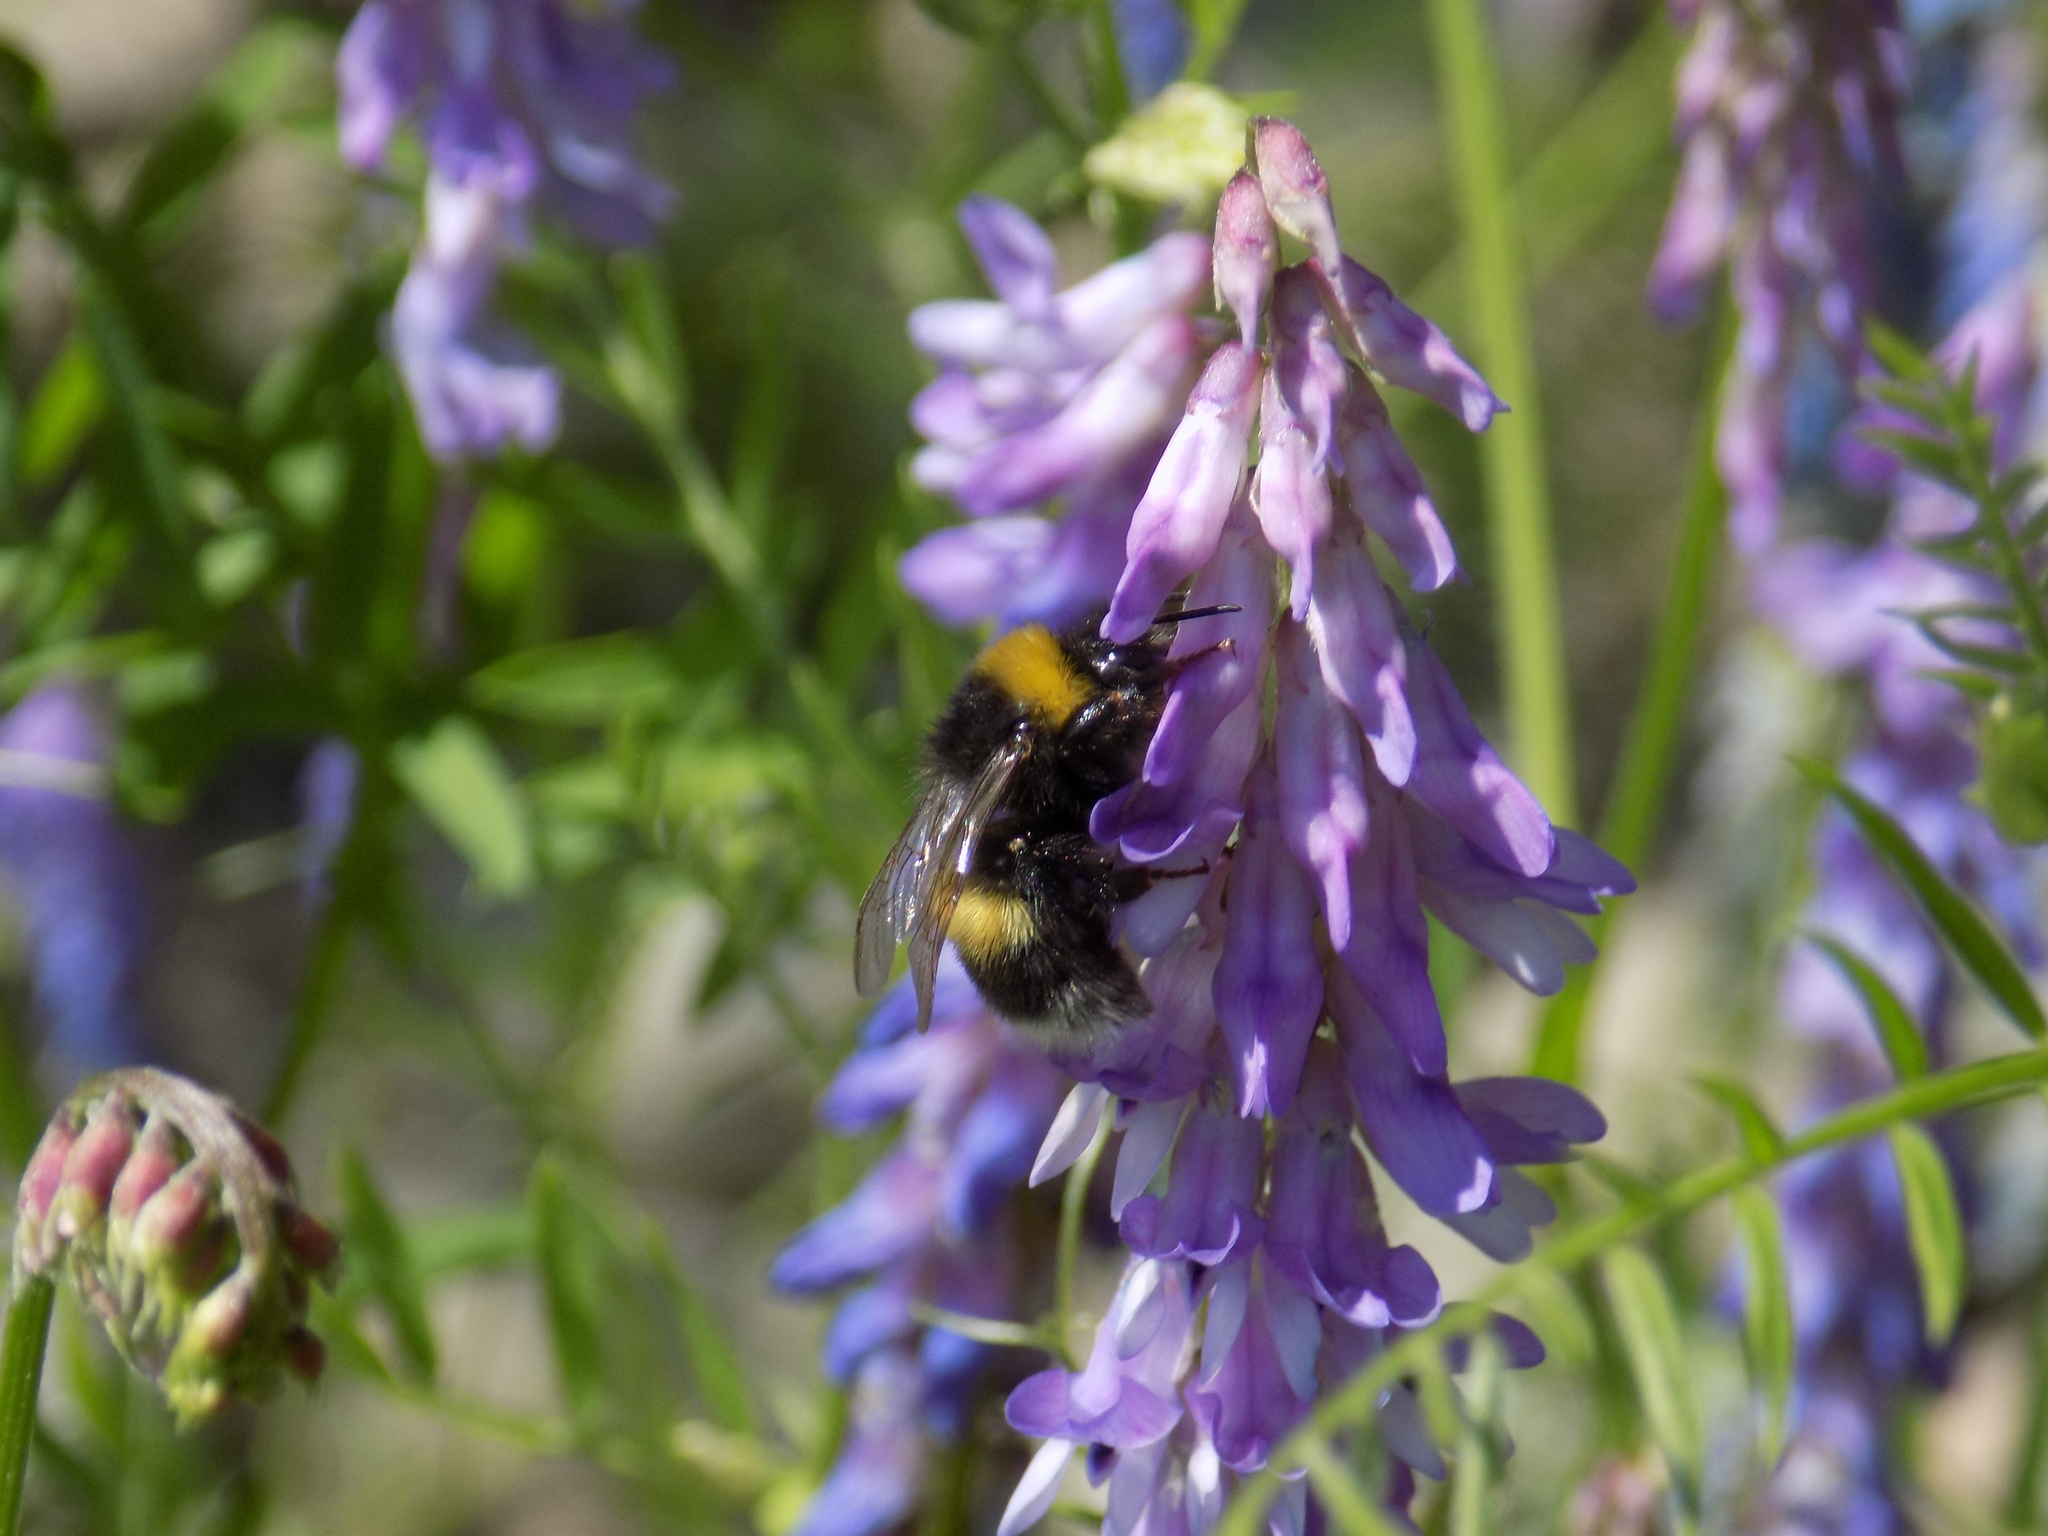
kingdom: Animalia
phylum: Arthropoda
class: Insecta
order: Hymenoptera
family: Apidae
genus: Bombus
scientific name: Bombus
